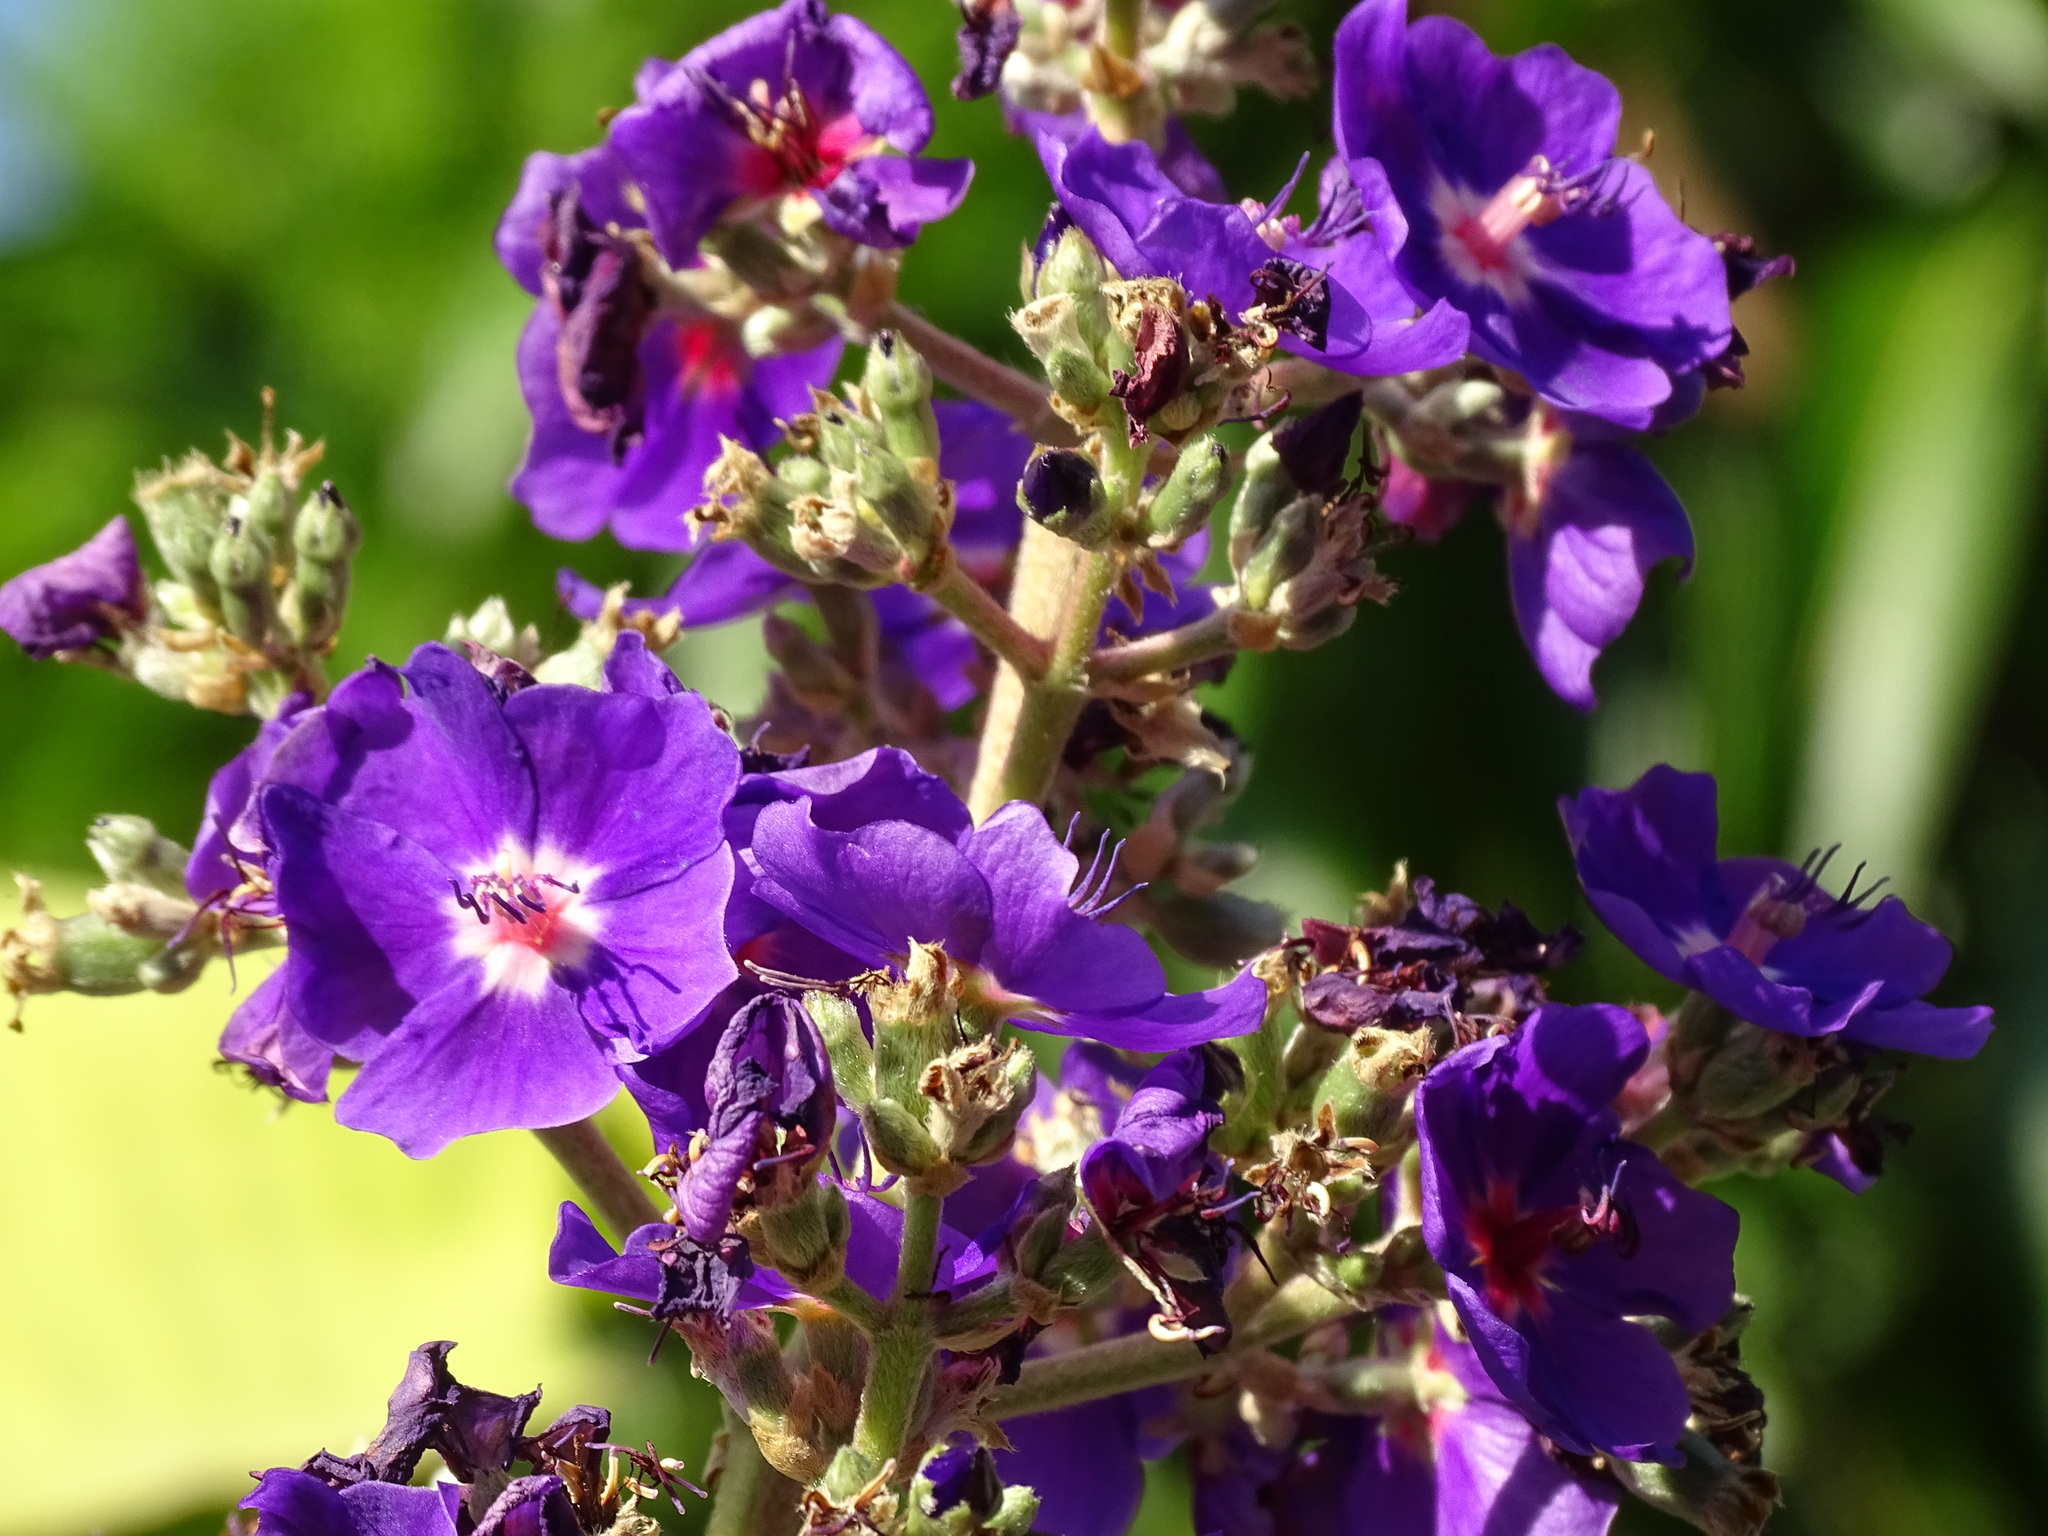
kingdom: Plantae
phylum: Tracheophyta
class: Magnoliopsida
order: Myrtales
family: Melastomataceae
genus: Pleroma
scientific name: Pleroma heteromallum
